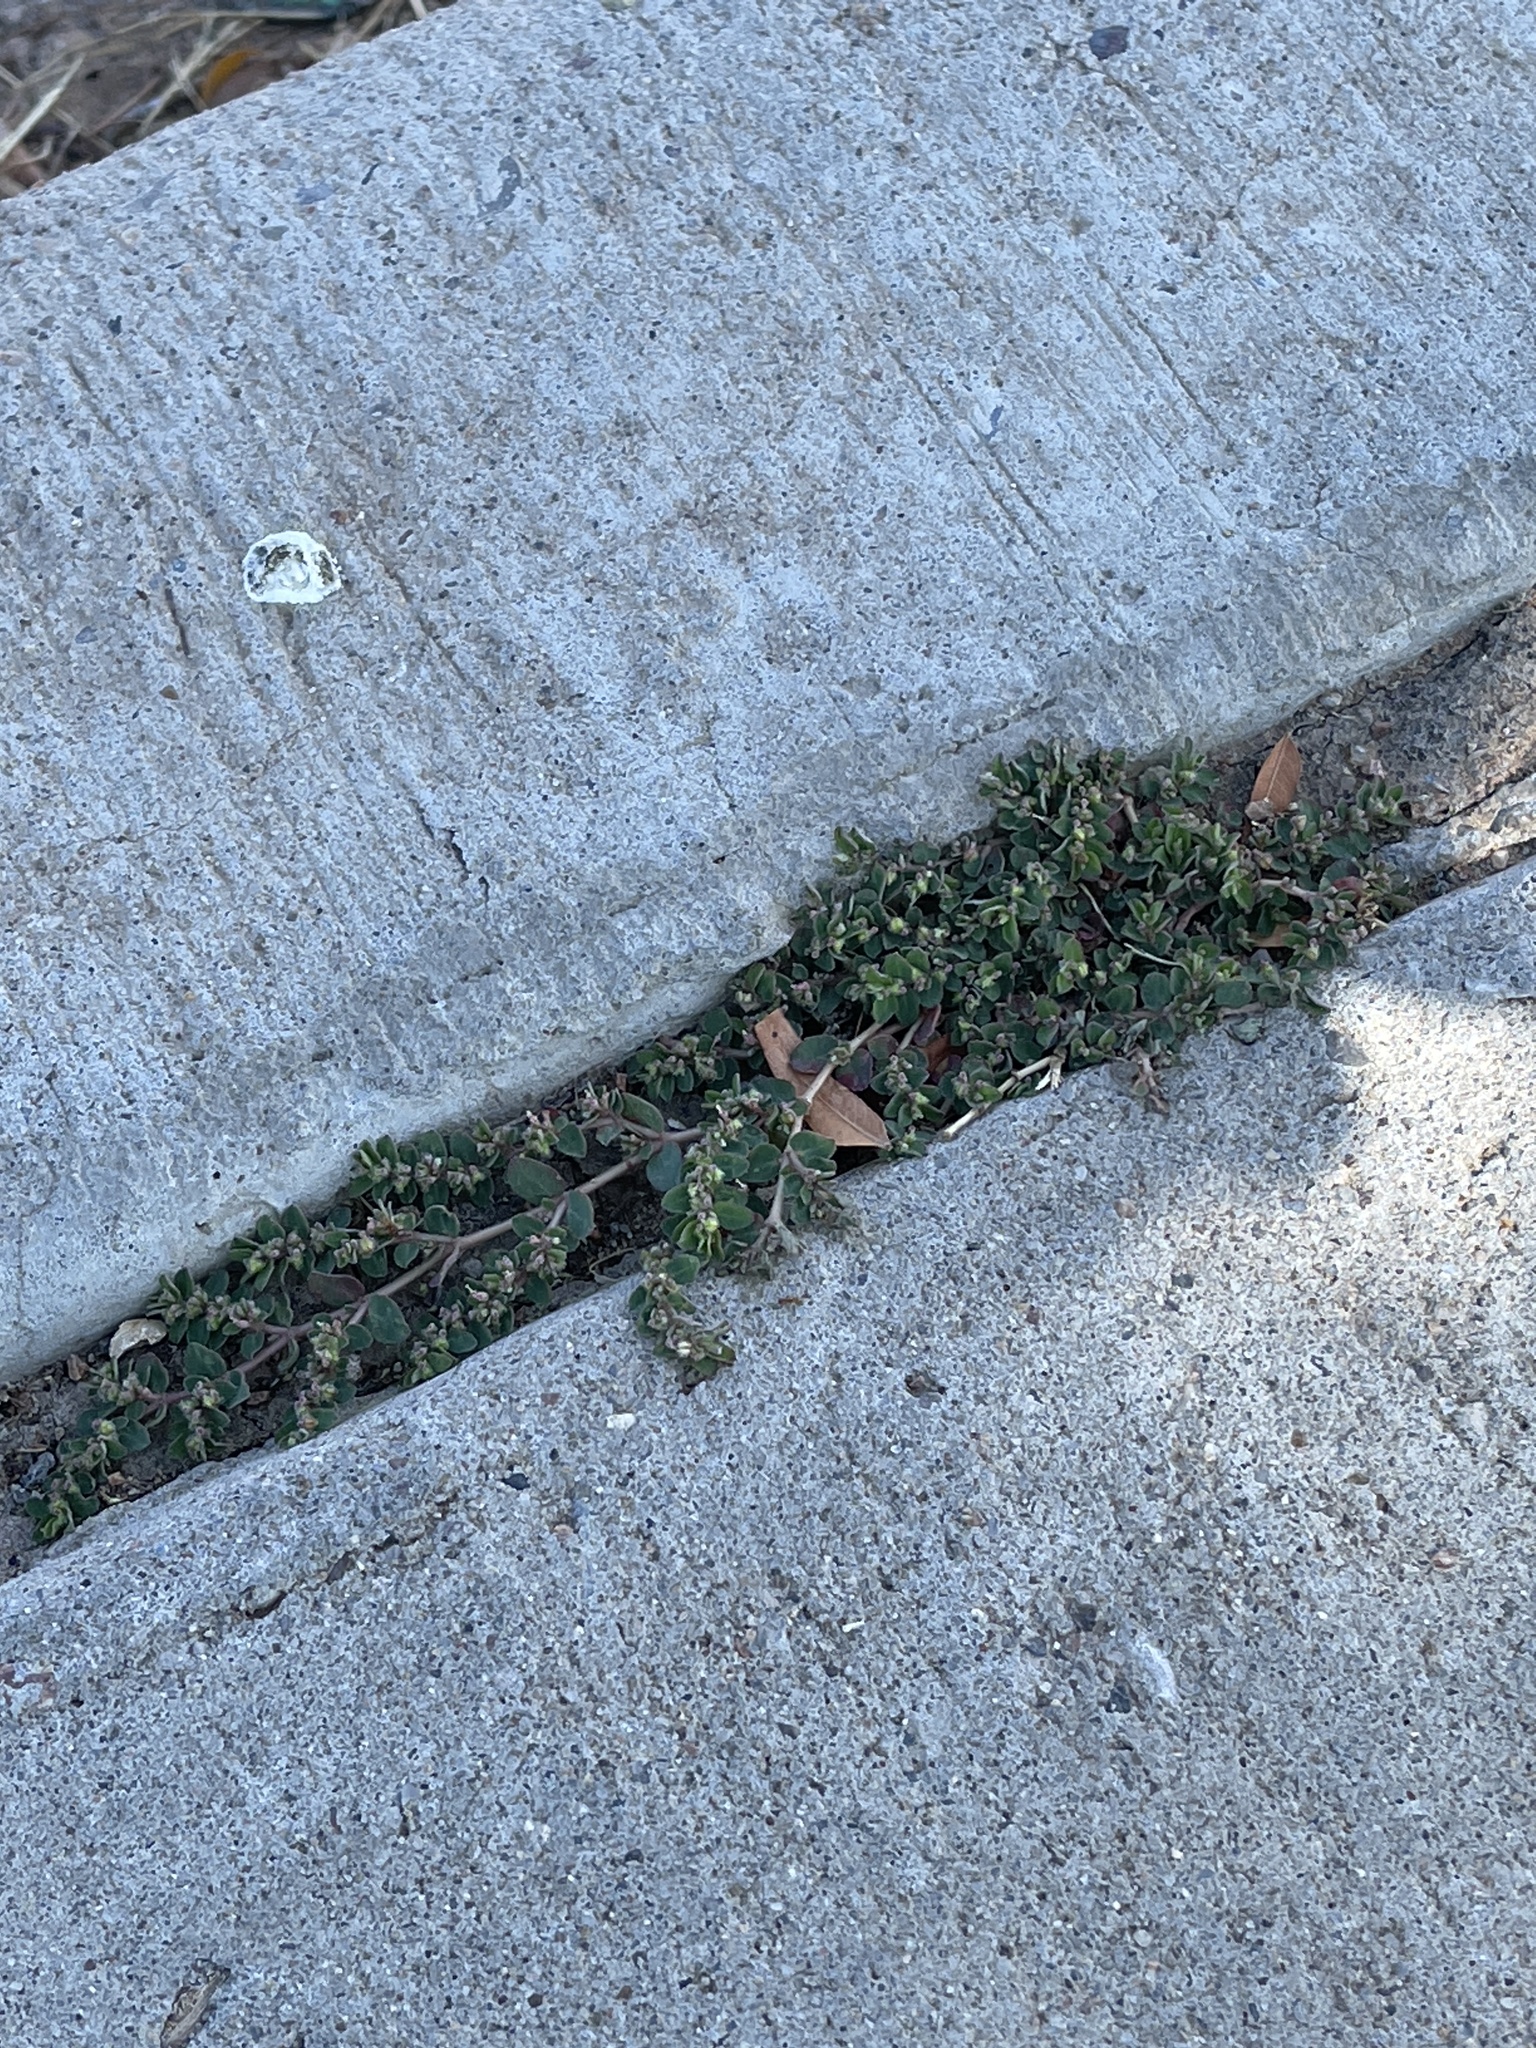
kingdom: Plantae
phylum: Tracheophyta
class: Magnoliopsida
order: Malpighiales
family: Euphorbiaceae
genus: Euphorbia
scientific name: Euphorbia prostrata
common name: Prostrate sandmat
